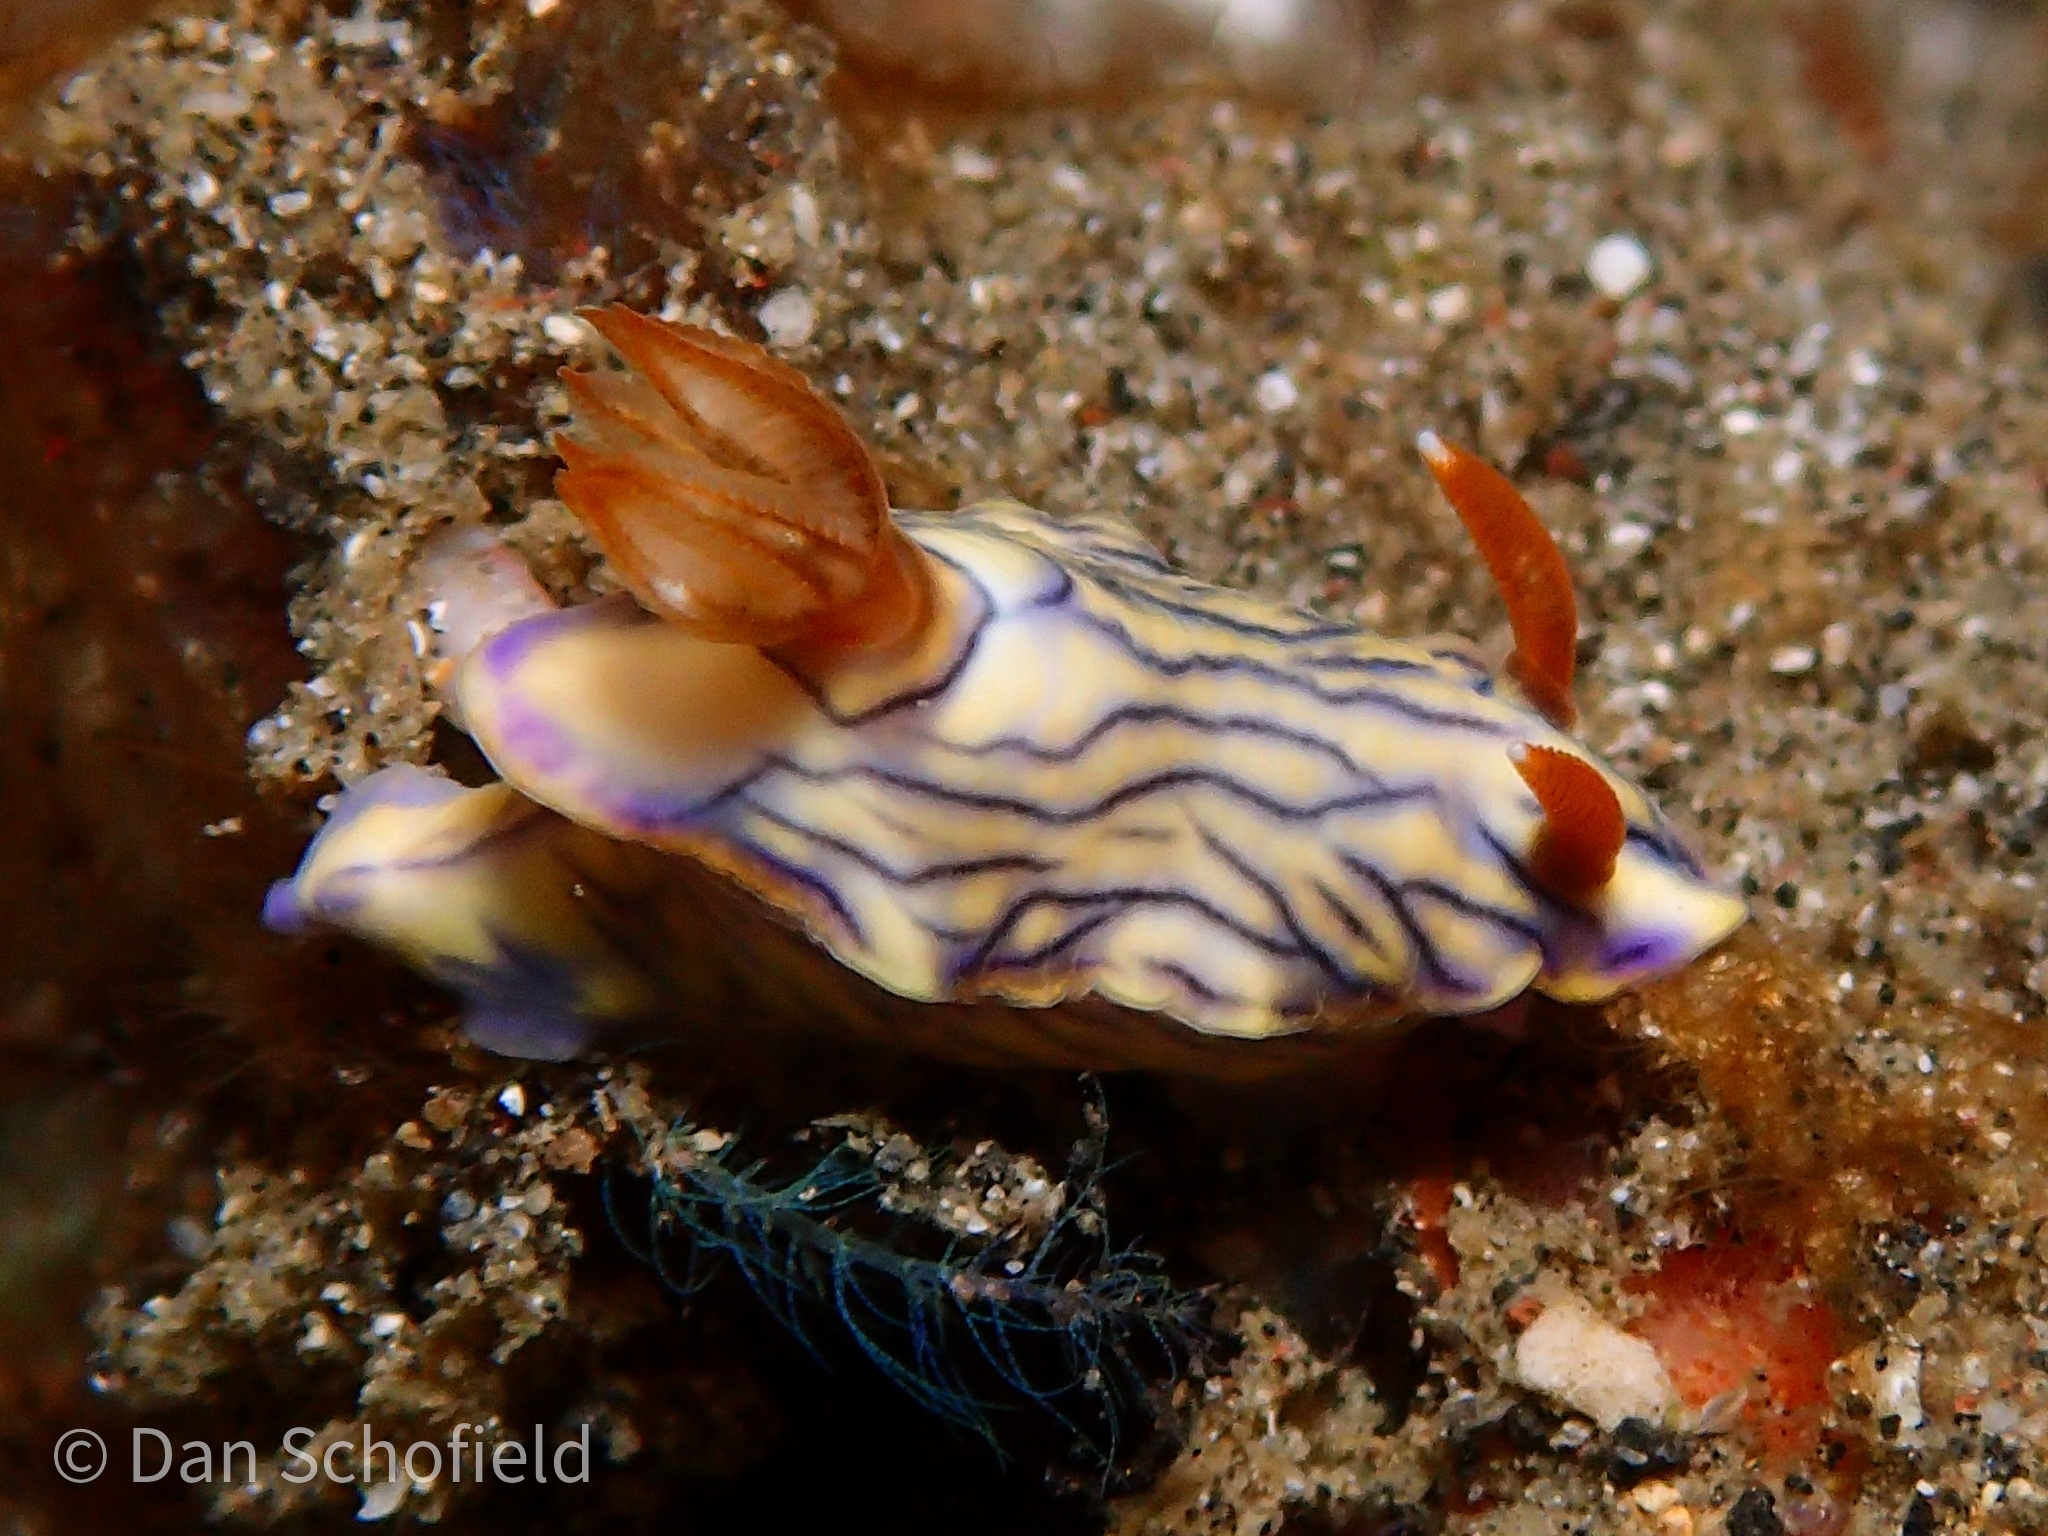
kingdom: Animalia
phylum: Mollusca
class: Gastropoda
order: Nudibranchia
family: Chromodorididae
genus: Hypselodoris
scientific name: Hypselodoris zephyra
